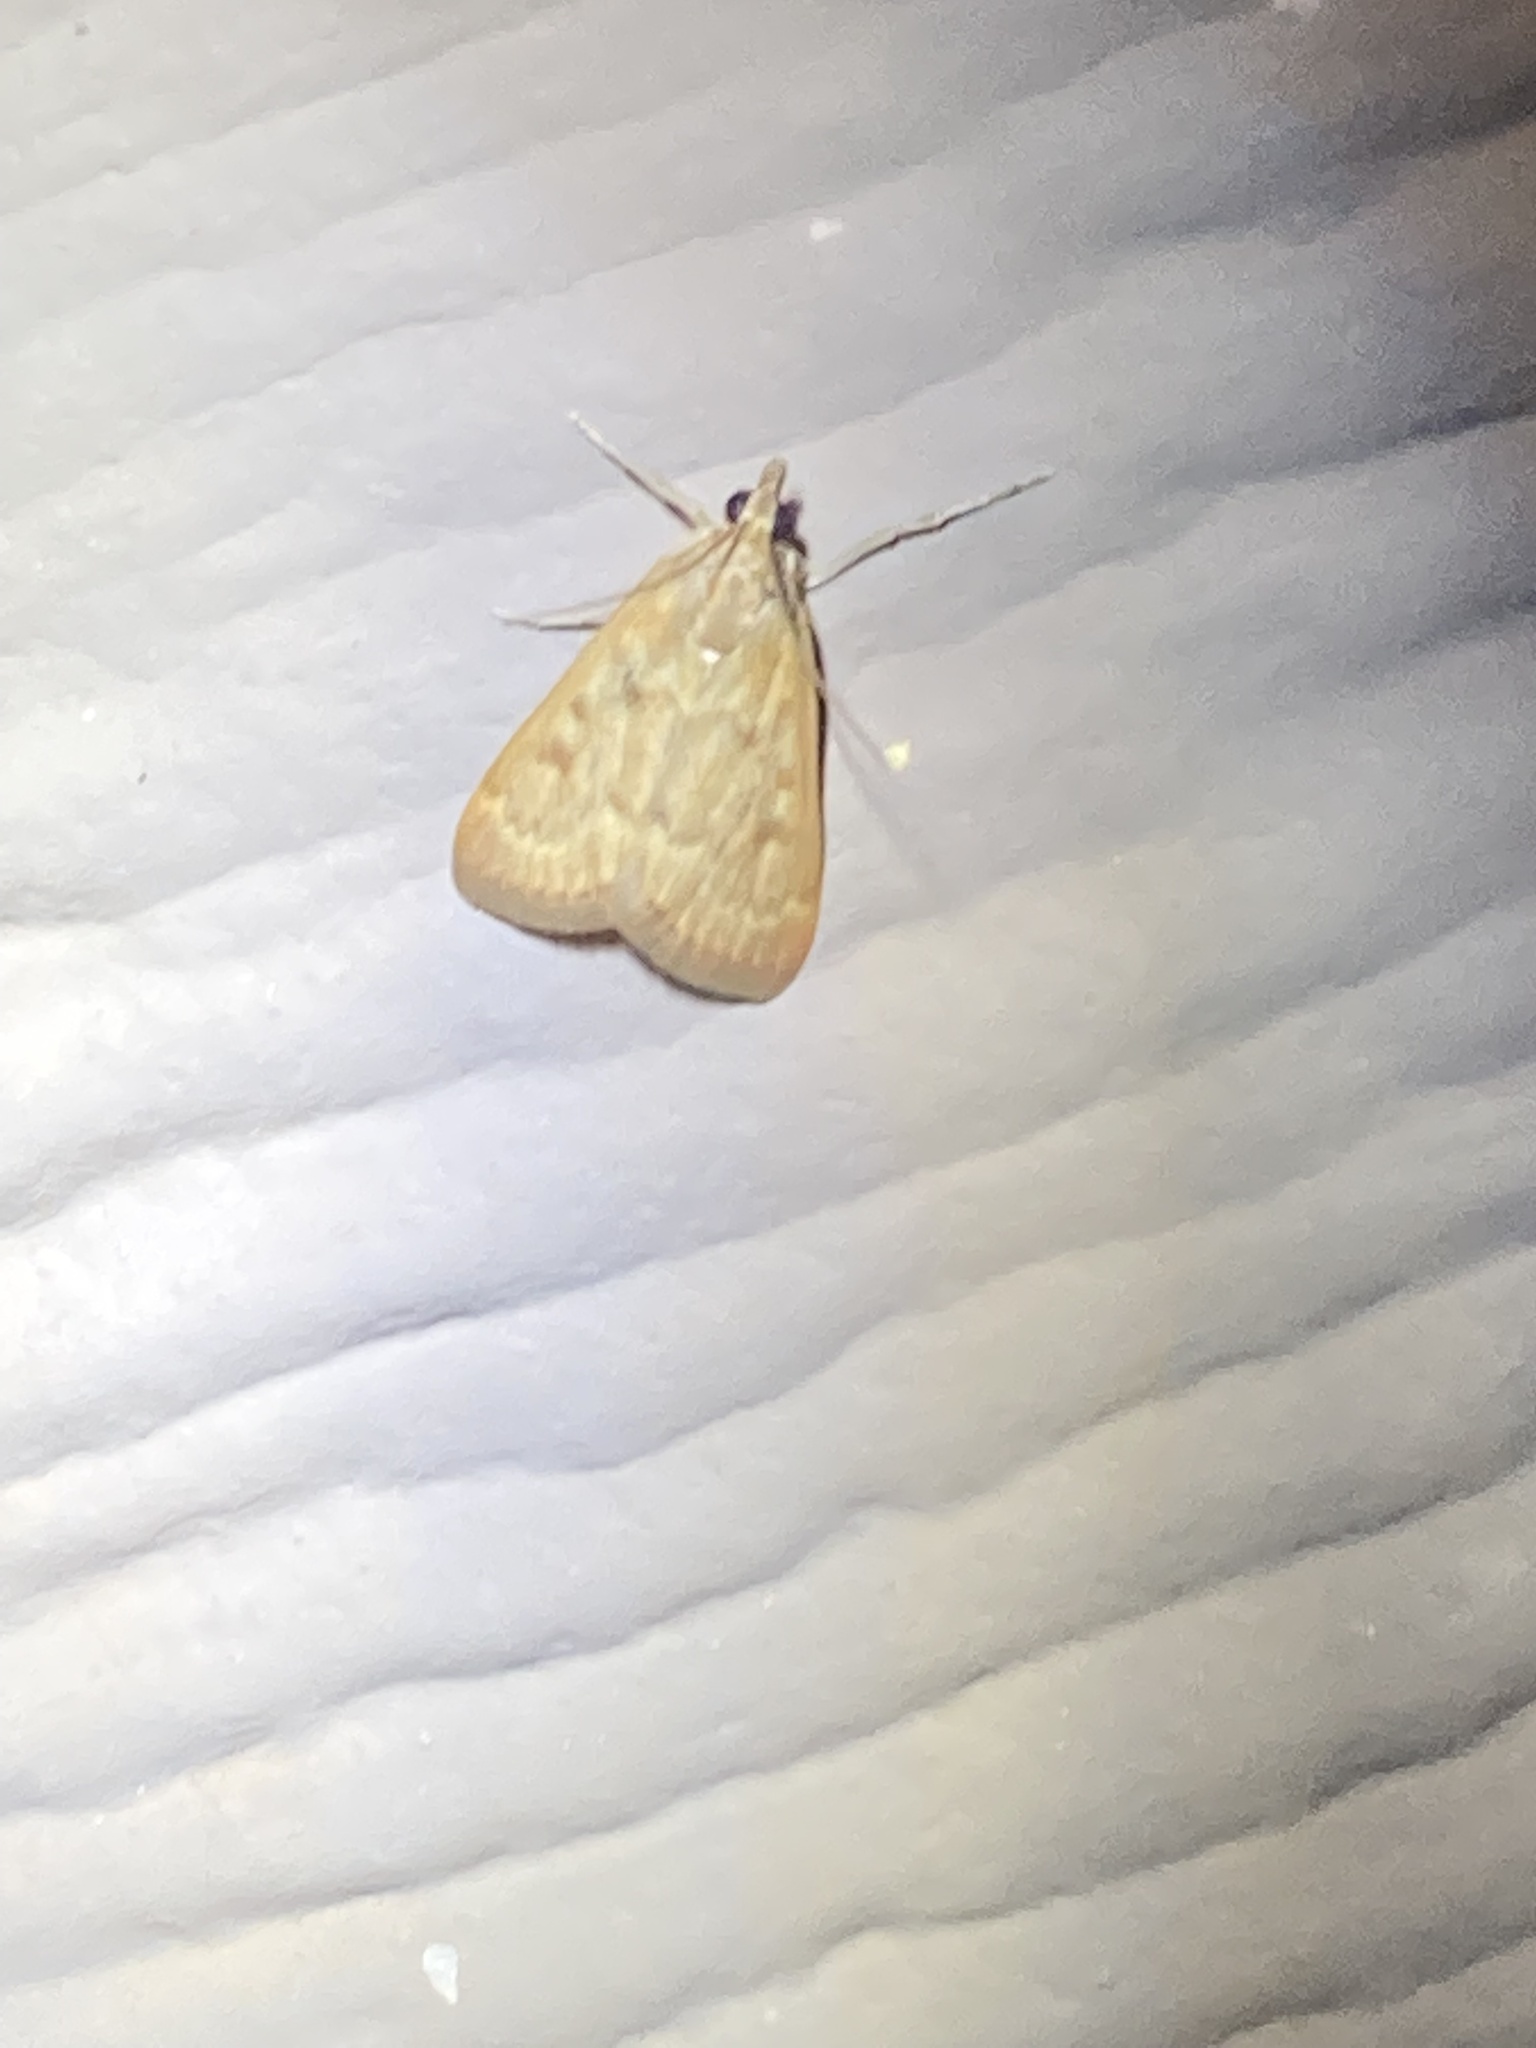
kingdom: Animalia
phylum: Arthropoda
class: Insecta
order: Lepidoptera
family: Crambidae
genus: Achyra
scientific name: Achyra rantalis
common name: Garden webworm
